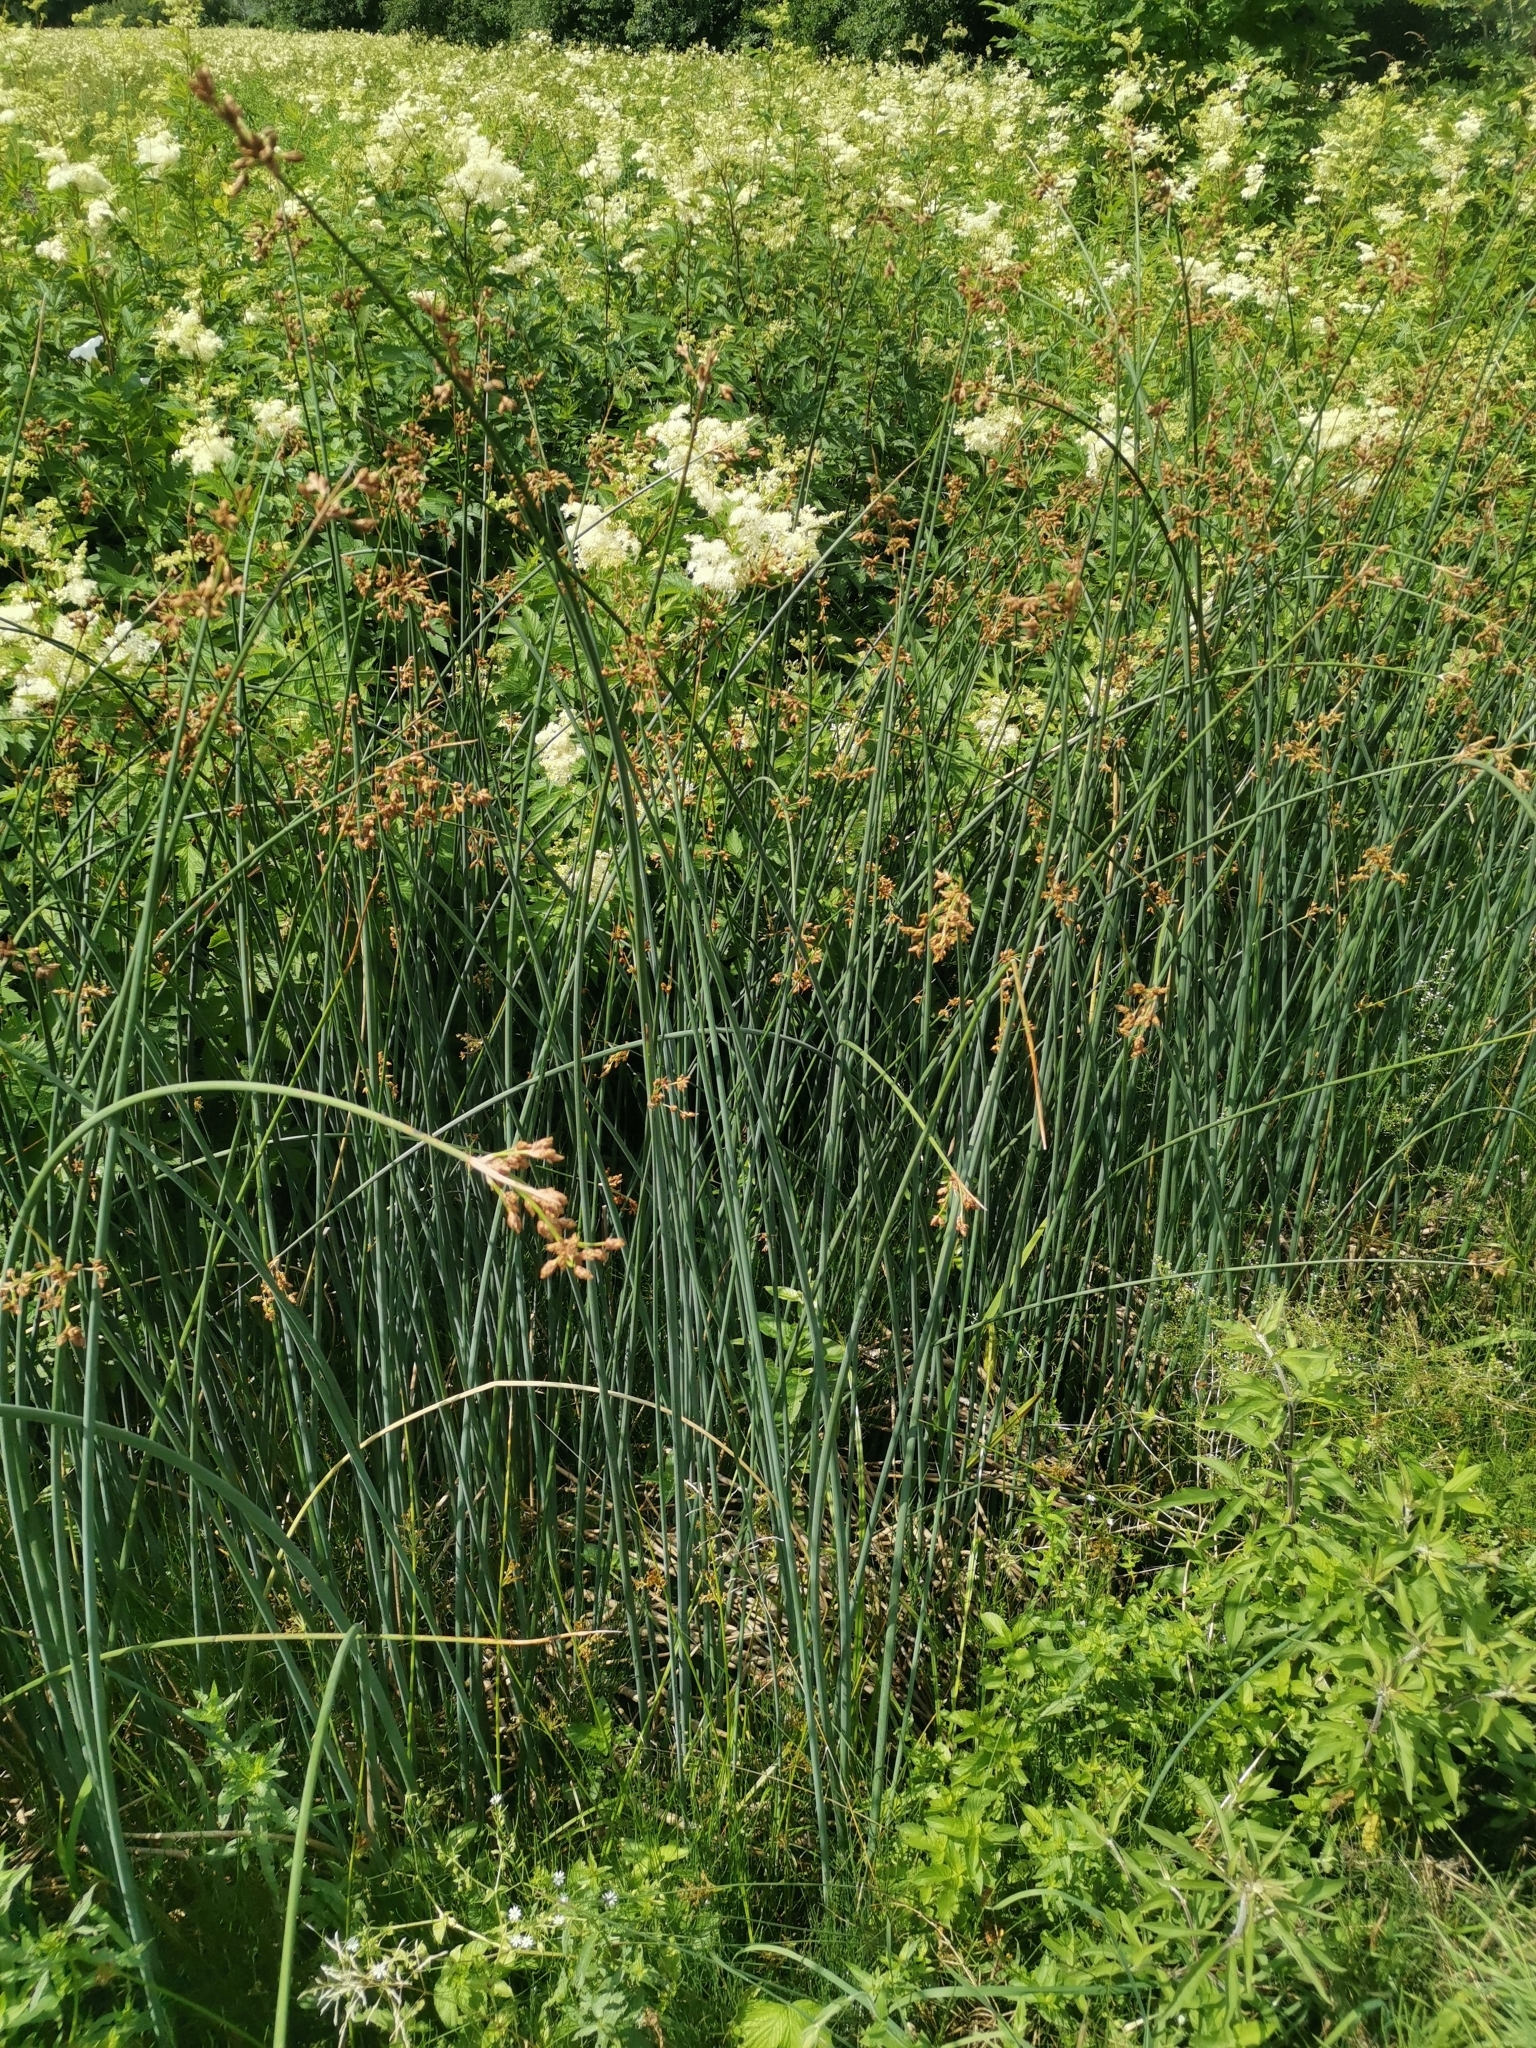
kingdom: Plantae
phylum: Tracheophyta
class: Liliopsida
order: Poales
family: Cyperaceae
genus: Schoenoplectus
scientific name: Schoenoplectus lacustris
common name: Common club-rush
